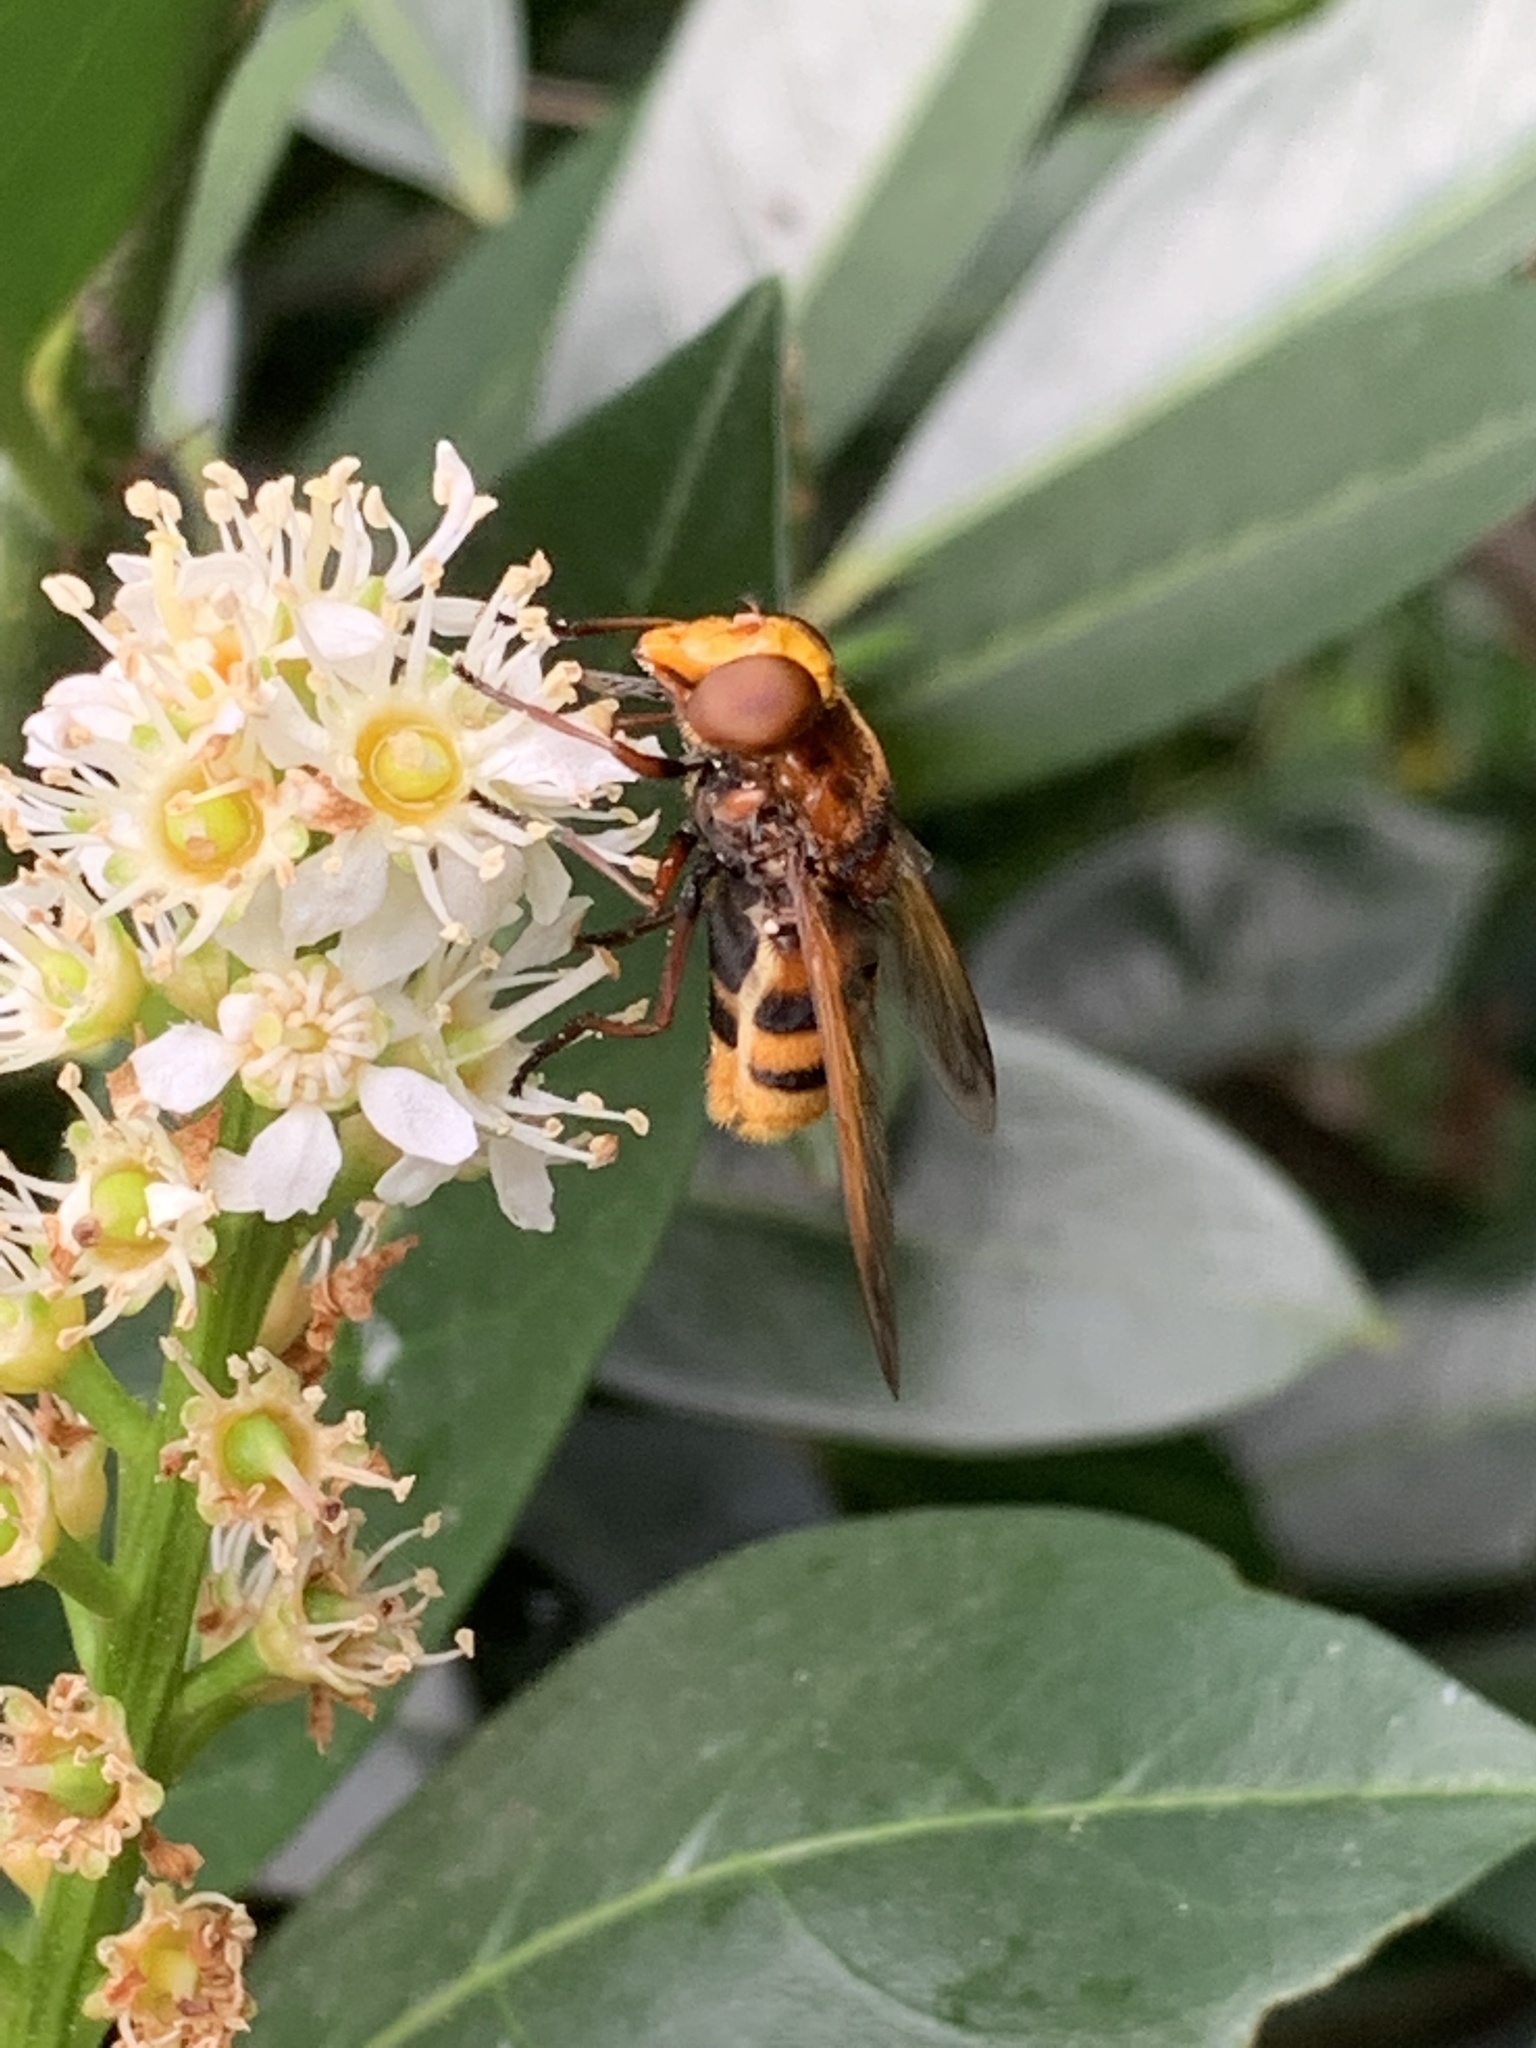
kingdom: Animalia
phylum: Arthropoda
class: Insecta
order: Diptera
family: Syrphidae
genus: Volucella
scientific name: Volucella zonaria
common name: Hornet hoverfly
